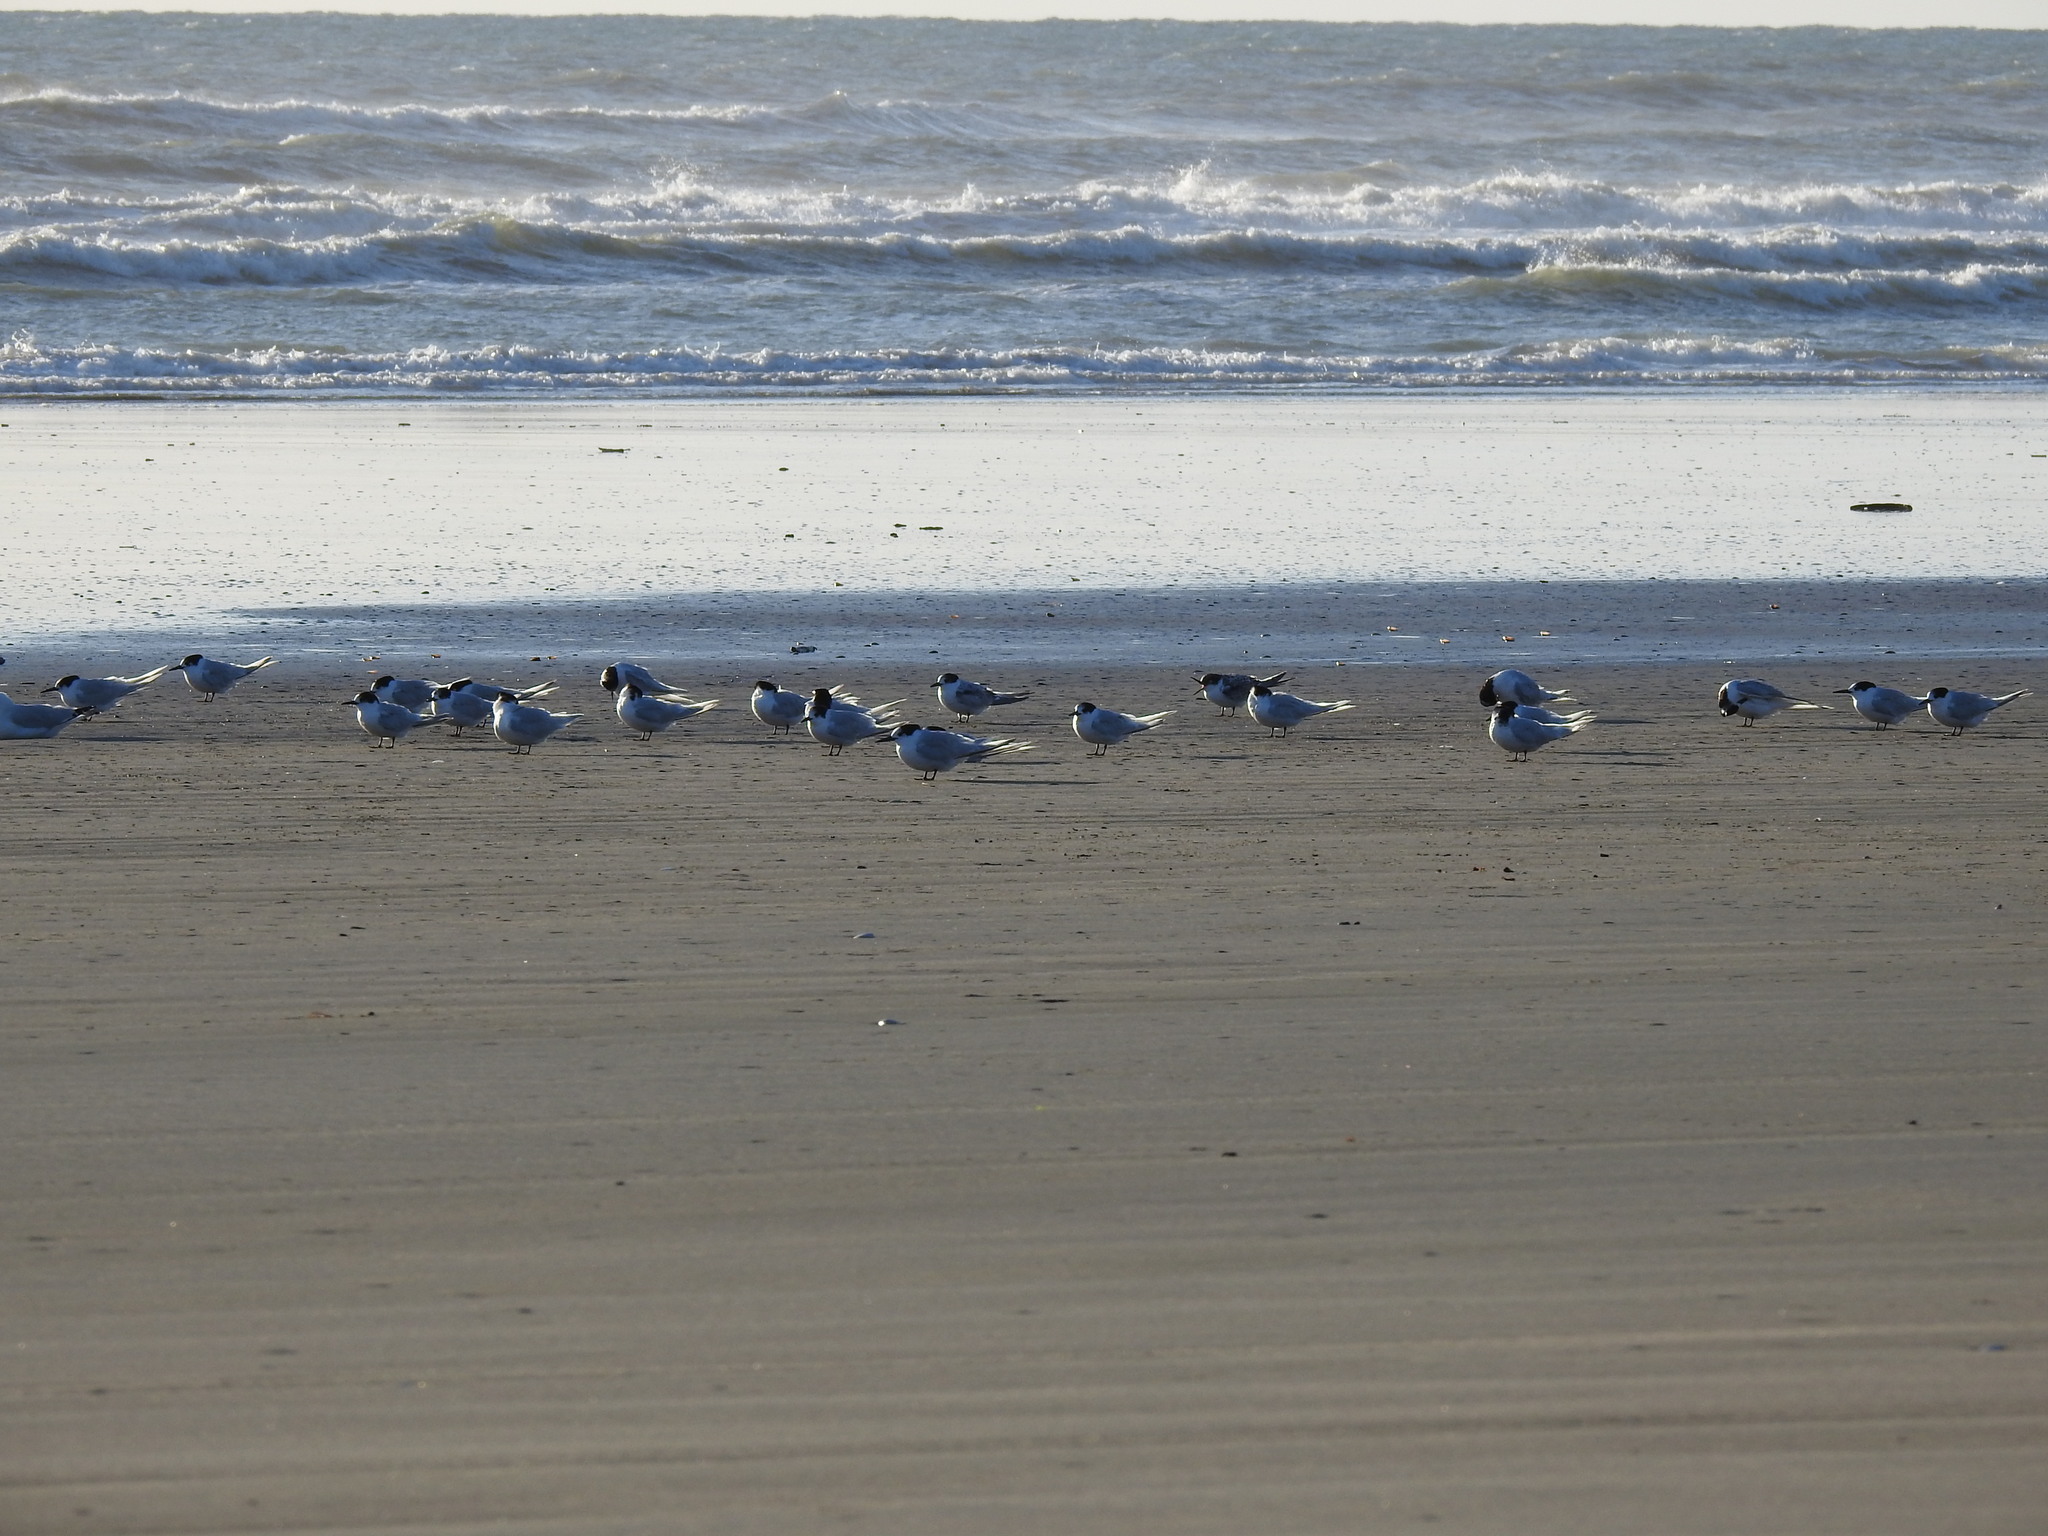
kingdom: Animalia
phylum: Chordata
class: Aves
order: Charadriiformes
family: Laridae
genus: Sterna
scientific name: Sterna striata
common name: White-fronted tern
